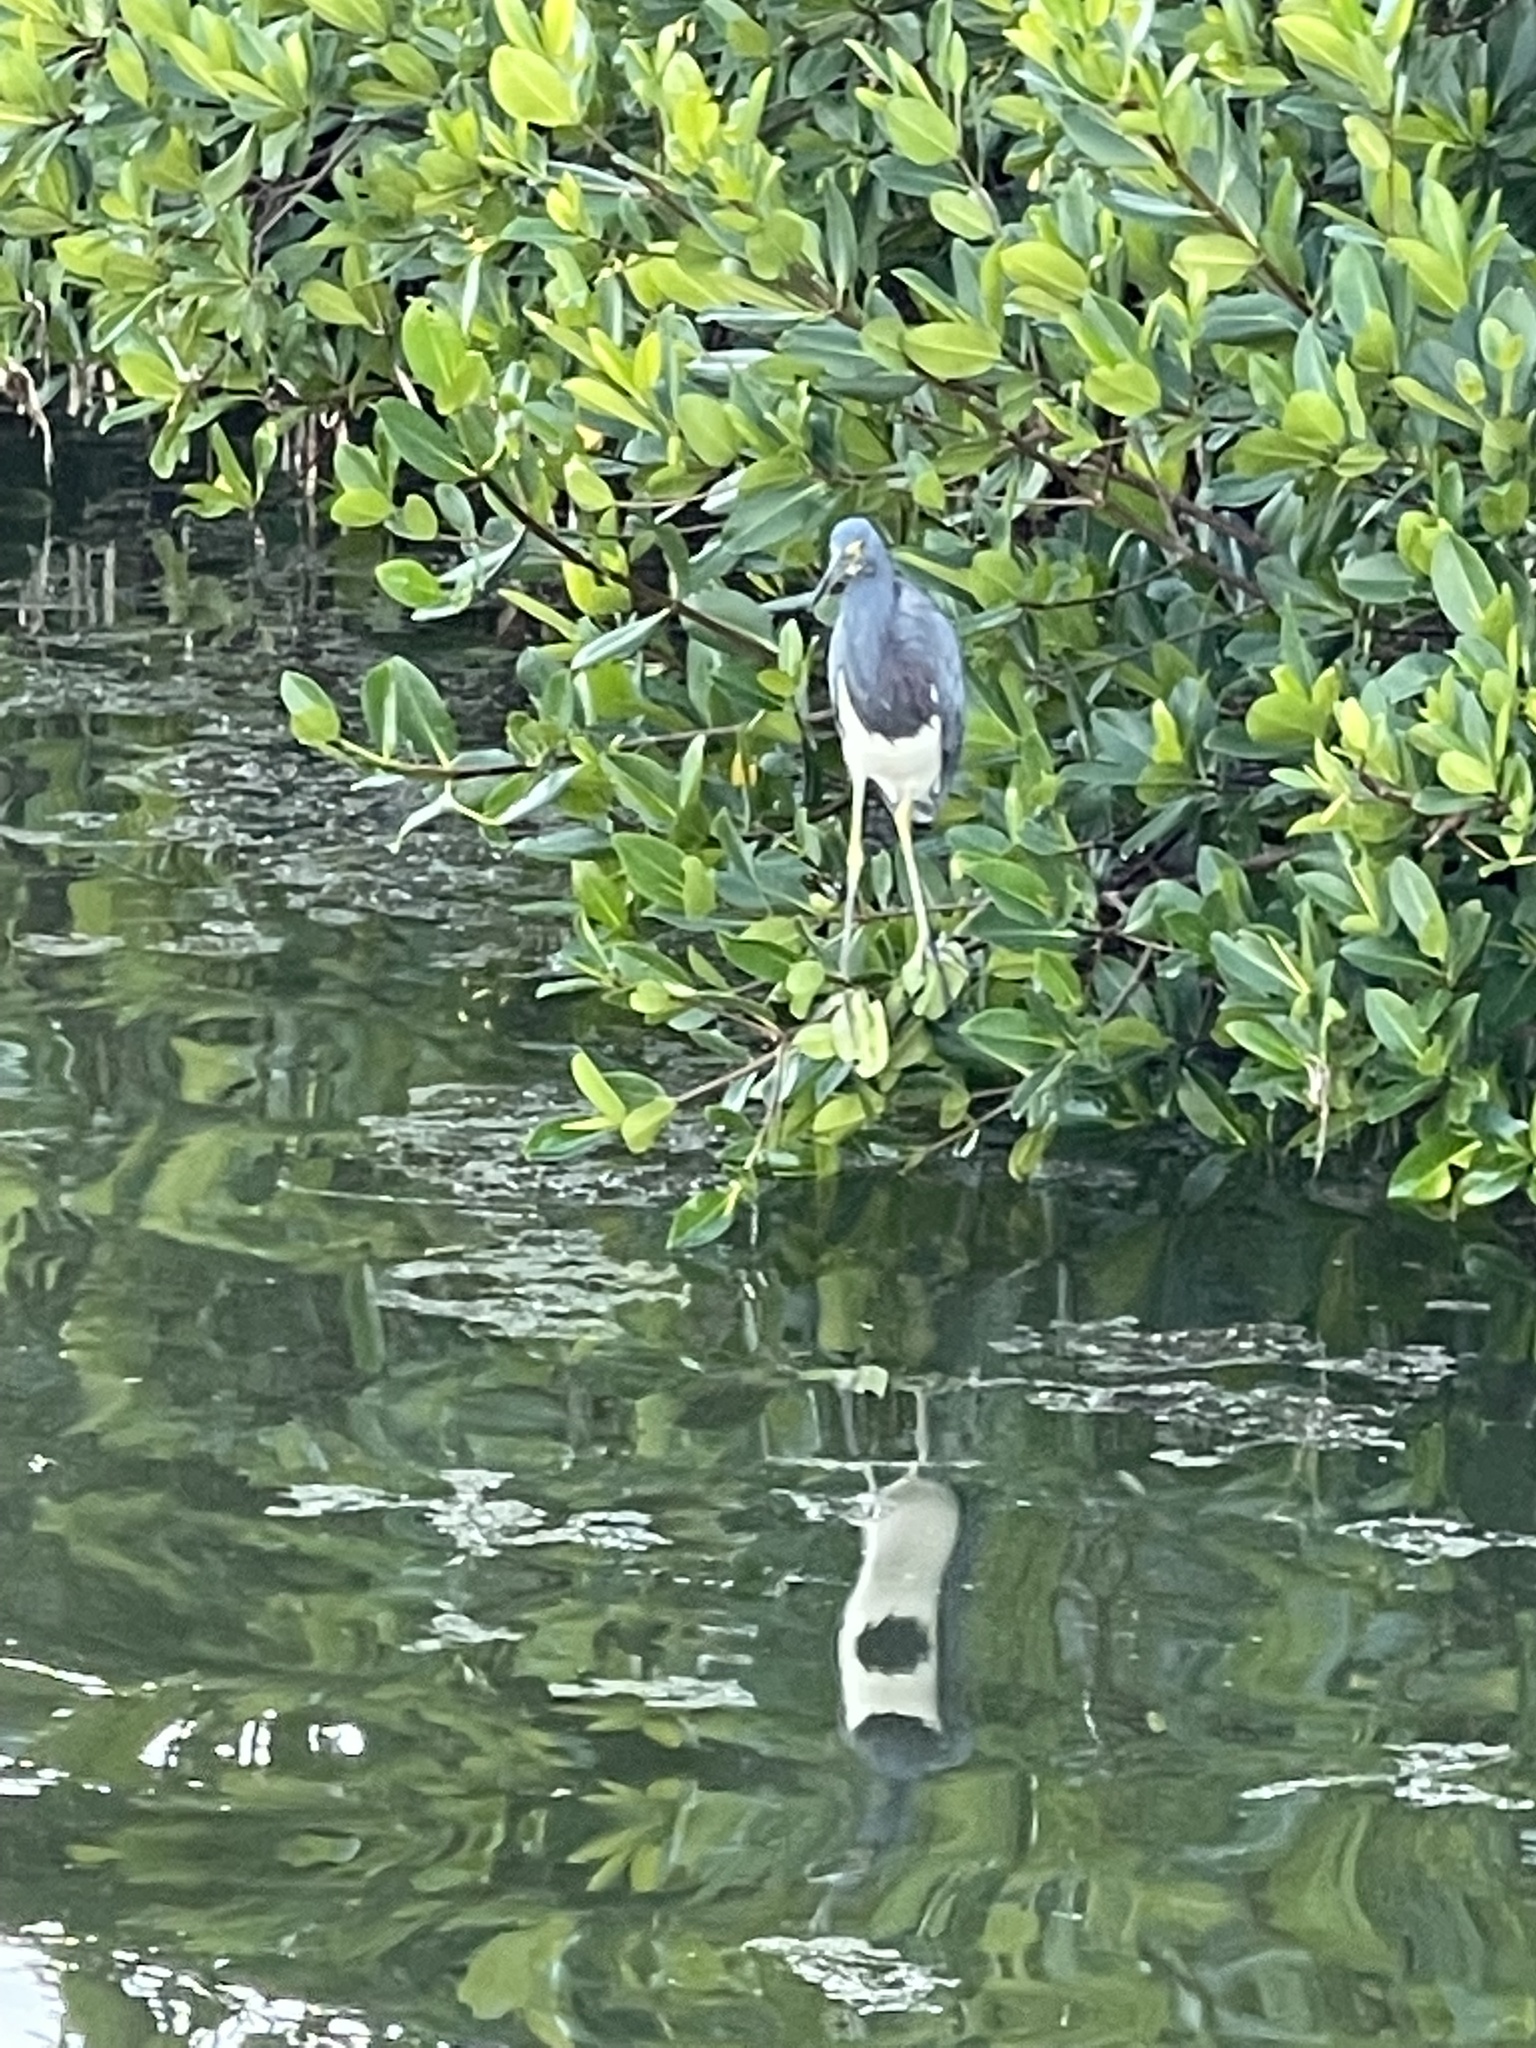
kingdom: Animalia
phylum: Chordata
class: Aves
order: Pelecaniformes
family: Ardeidae
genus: Egretta
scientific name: Egretta tricolor
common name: Tricolored heron
